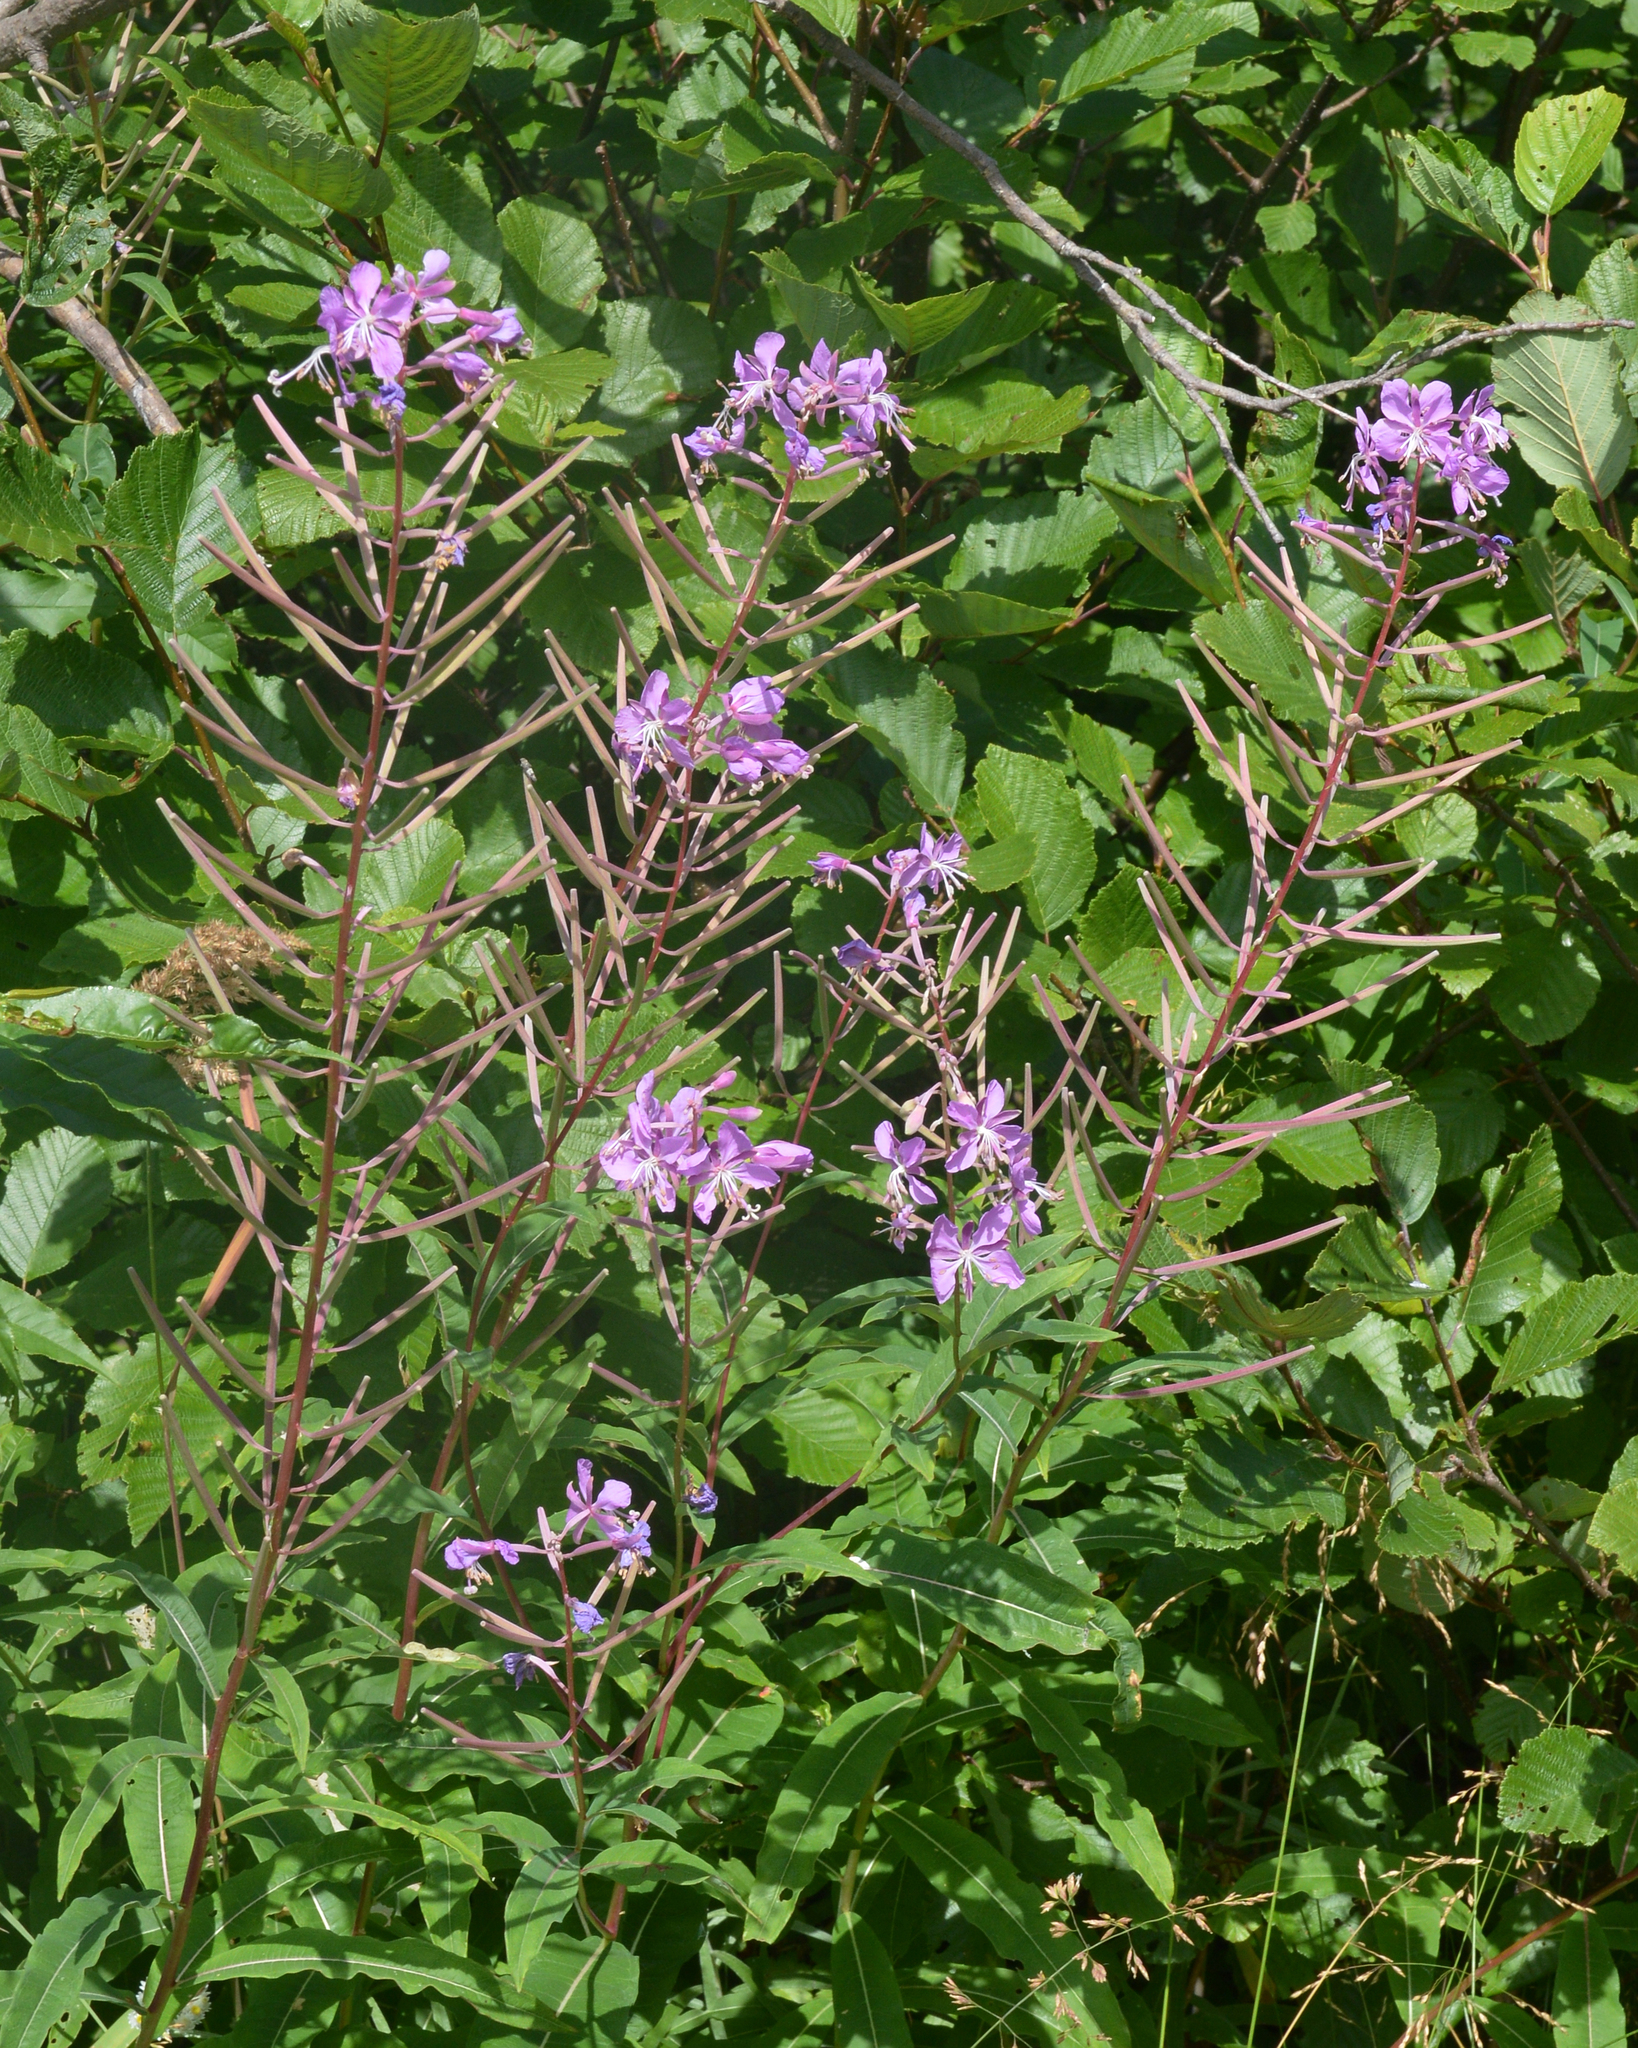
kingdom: Plantae
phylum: Tracheophyta
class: Magnoliopsida
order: Myrtales
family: Onagraceae
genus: Chamaenerion
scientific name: Chamaenerion angustifolium
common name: Fireweed
